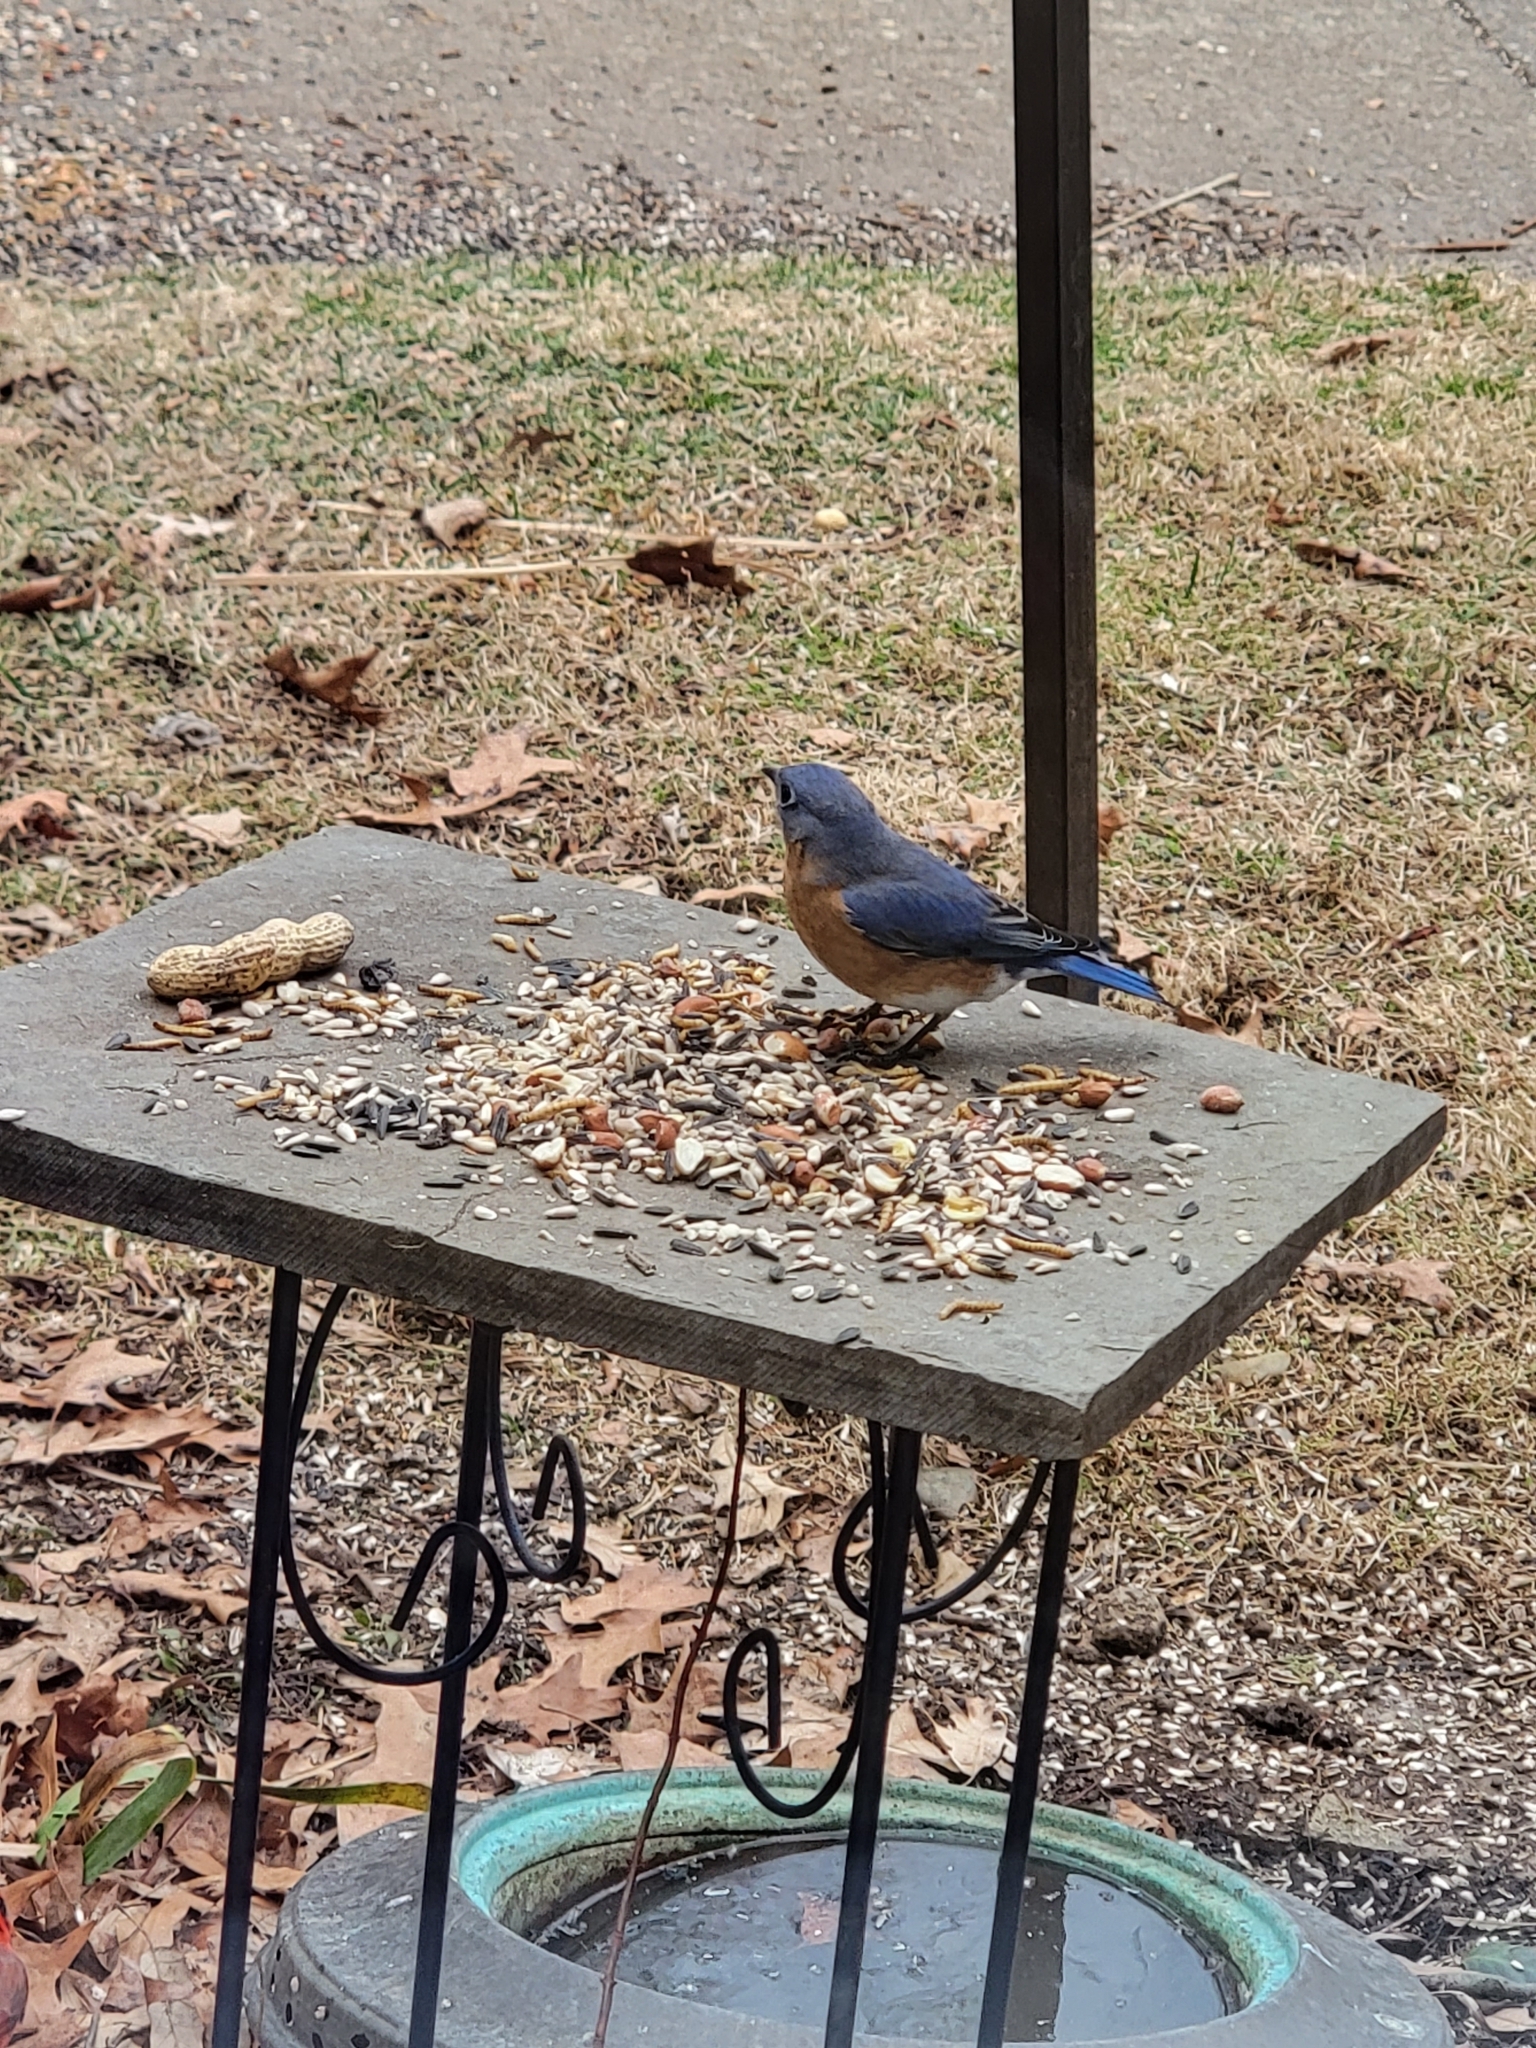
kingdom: Animalia
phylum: Chordata
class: Aves
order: Passeriformes
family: Turdidae
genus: Sialia
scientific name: Sialia sialis
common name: Eastern bluebird
